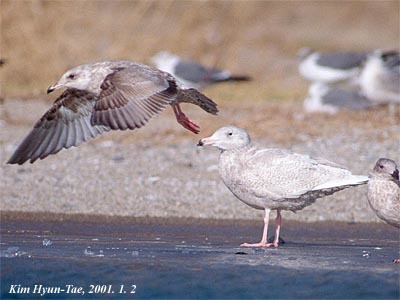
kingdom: Animalia
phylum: Chordata
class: Aves
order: Charadriiformes
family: Laridae
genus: Larus
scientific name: Larus hyperboreus
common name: Glaucous gull
